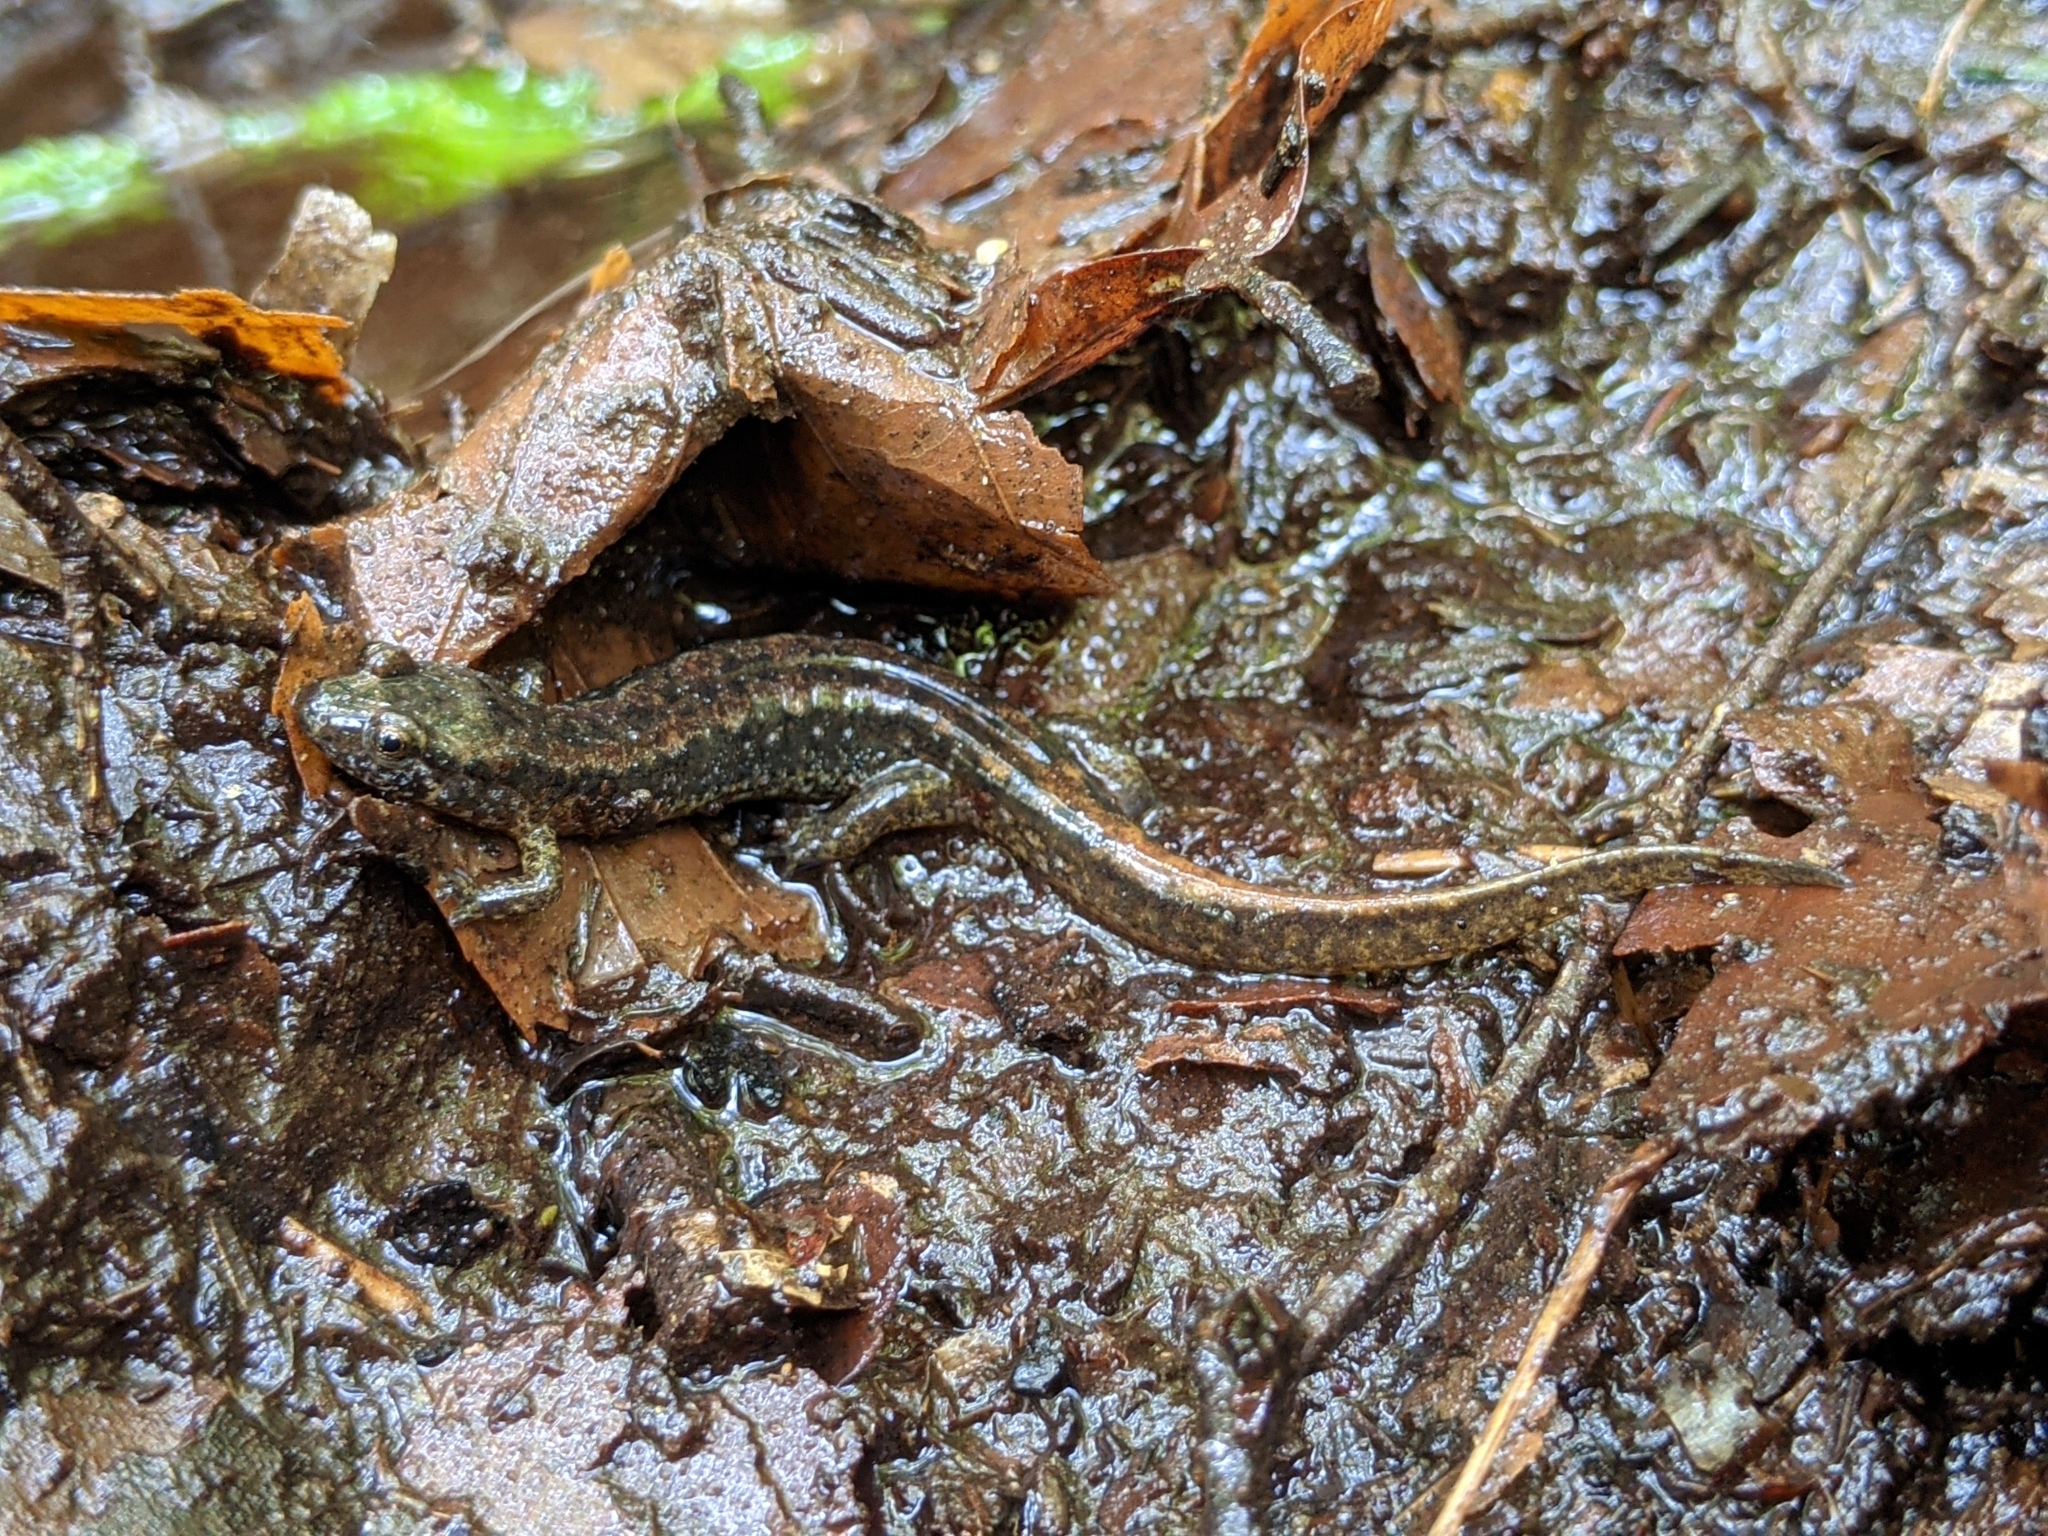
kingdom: Animalia
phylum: Chordata
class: Amphibia
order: Caudata
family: Plethodontidae
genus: Desmognathus
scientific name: Desmognathus fuscus
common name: Northern dusky salamander
